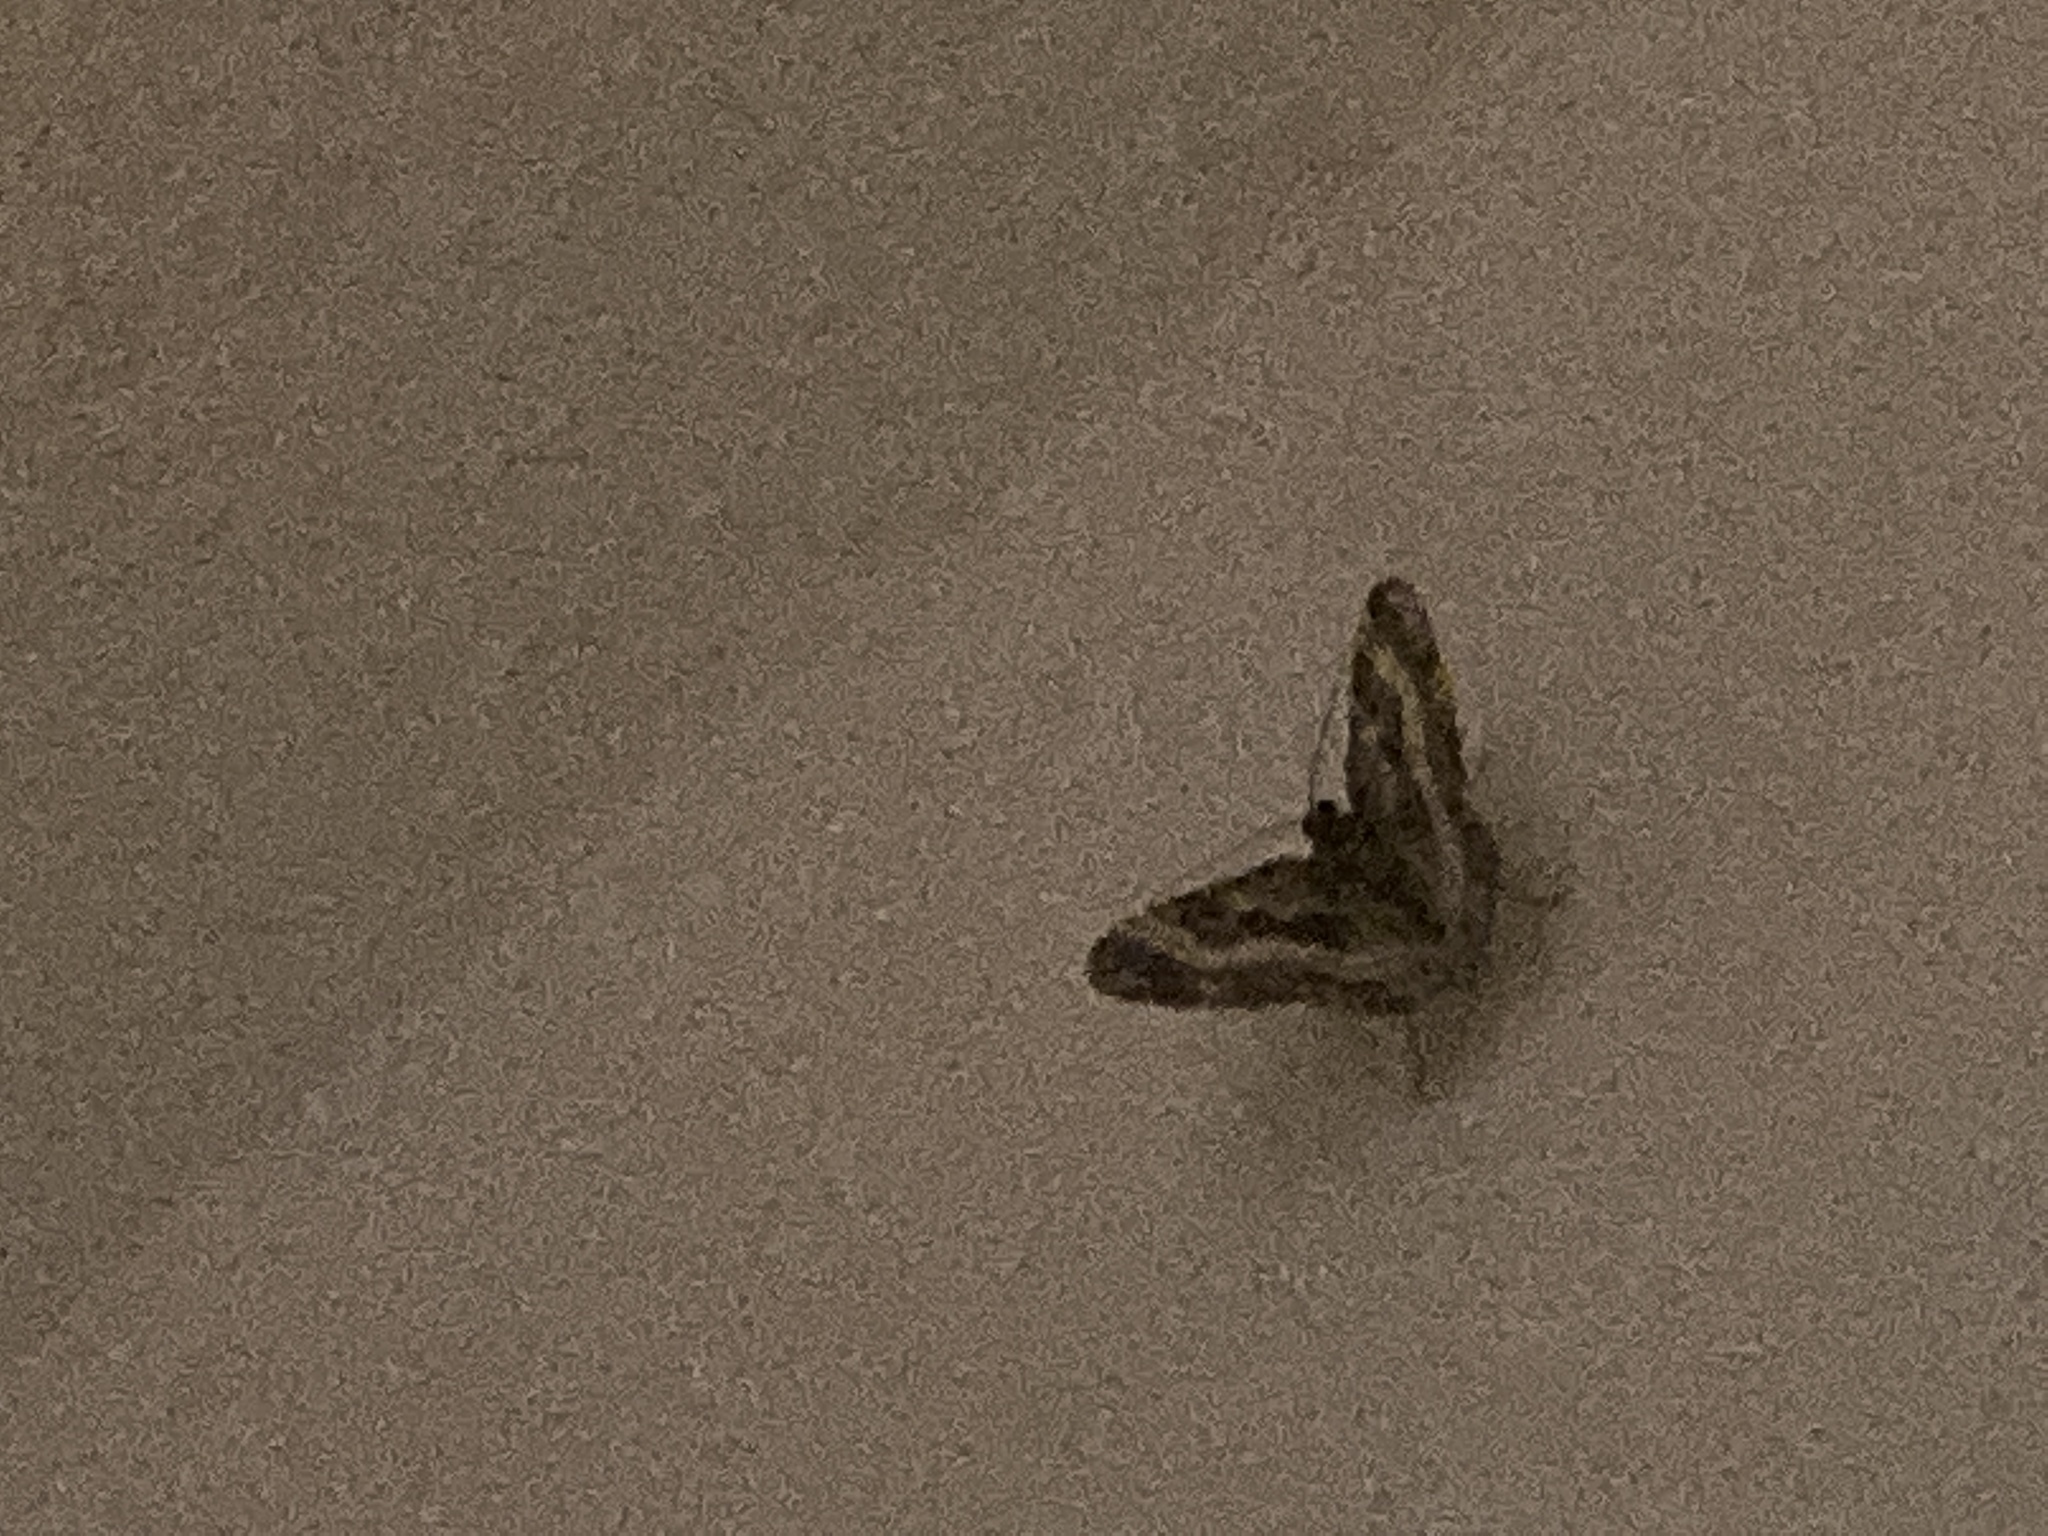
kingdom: Animalia
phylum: Arthropoda
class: Insecta
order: Lepidoptera
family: Geometridae
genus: Epirrhoe
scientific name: Epirrhoe alternata
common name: Common carpet
